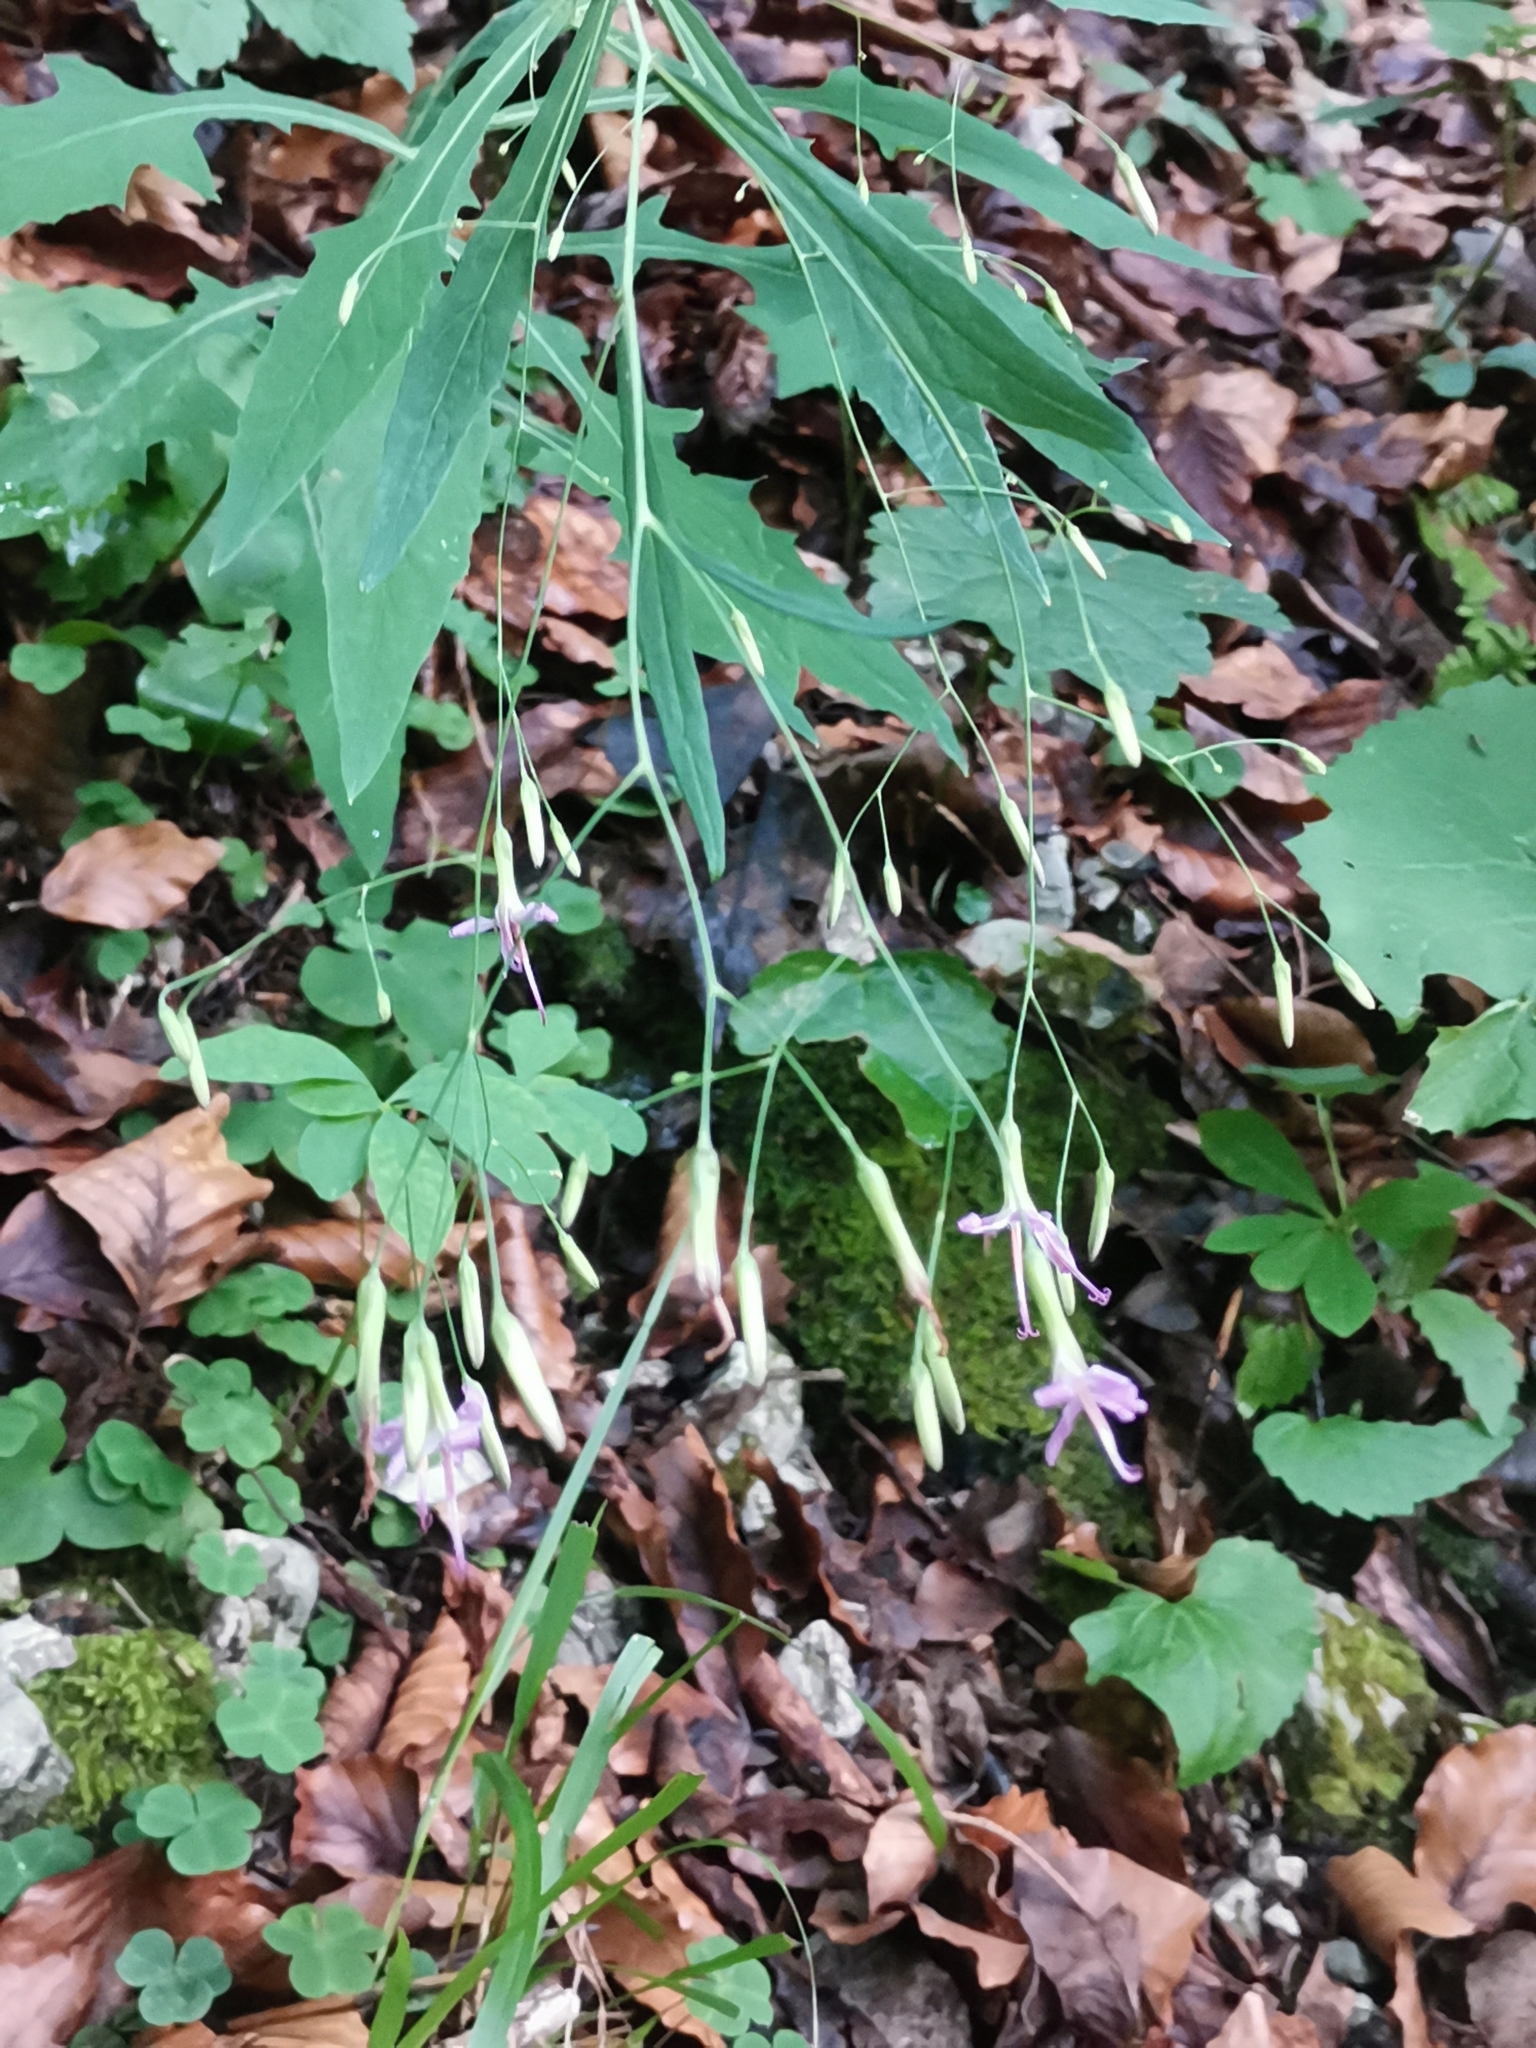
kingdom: Plantae
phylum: Tracheophyta
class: Magnoliopsida
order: Asterales
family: Asteraceae
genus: Prenanthes
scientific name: Prenanthes purpurea
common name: Purple lettuce
